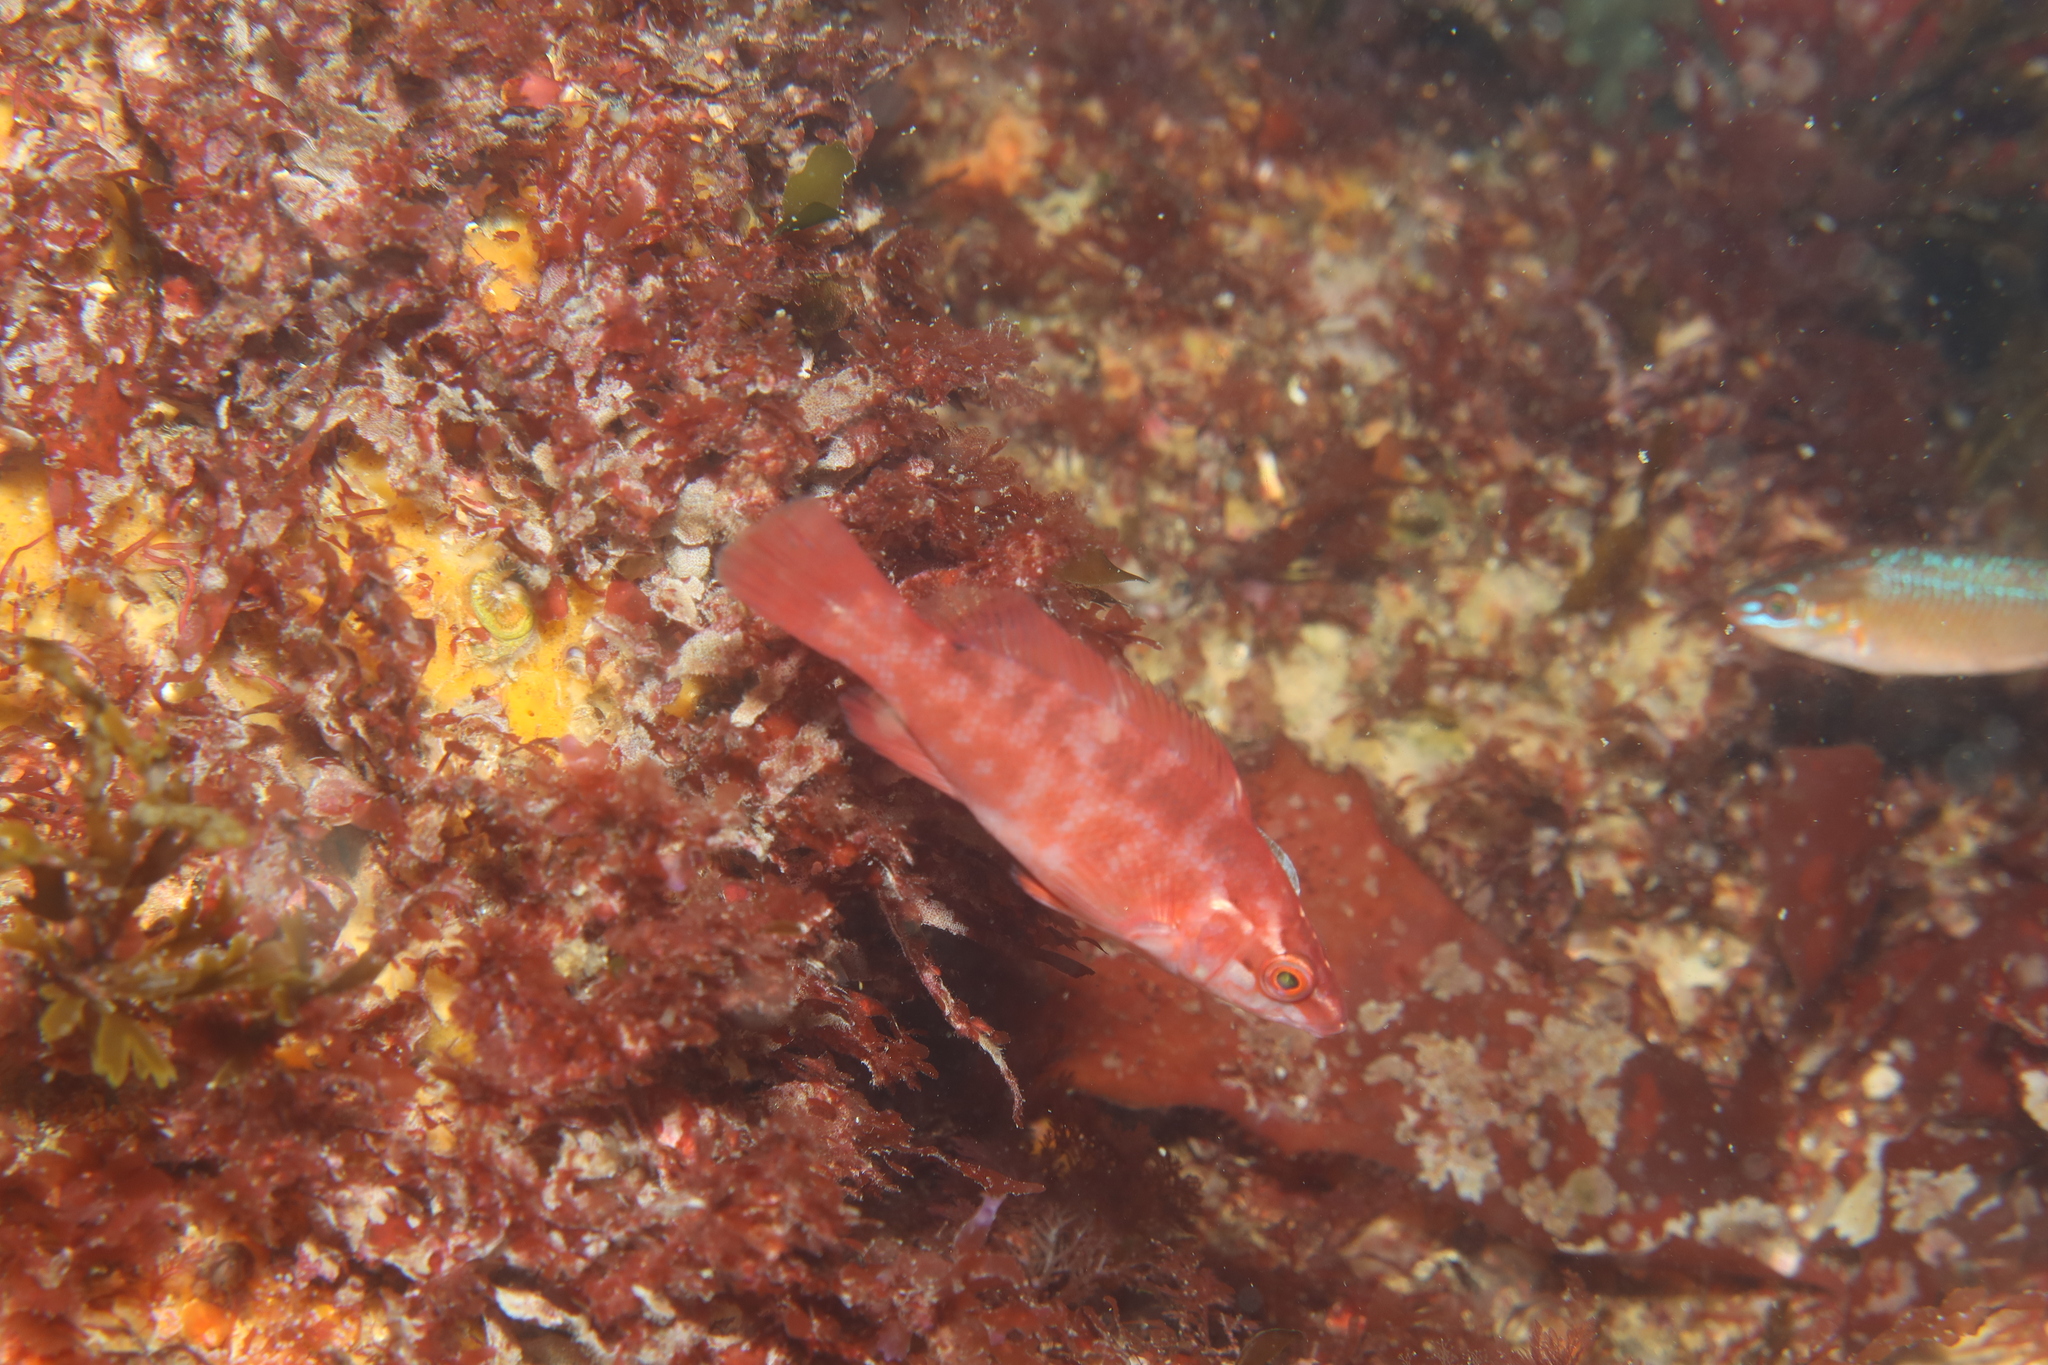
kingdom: Animalia
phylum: Chordata
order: Perciformes
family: Labridae
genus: Labrus
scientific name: Labrus bergylta
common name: Ballan wrasse
